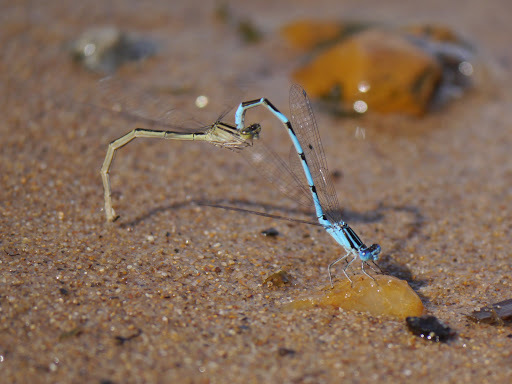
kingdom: Animalia
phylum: Arthropoda
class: Insecta
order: Odonata
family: Coenagrionidae
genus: Enallagma
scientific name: Enallagma durum
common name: Big bluet
